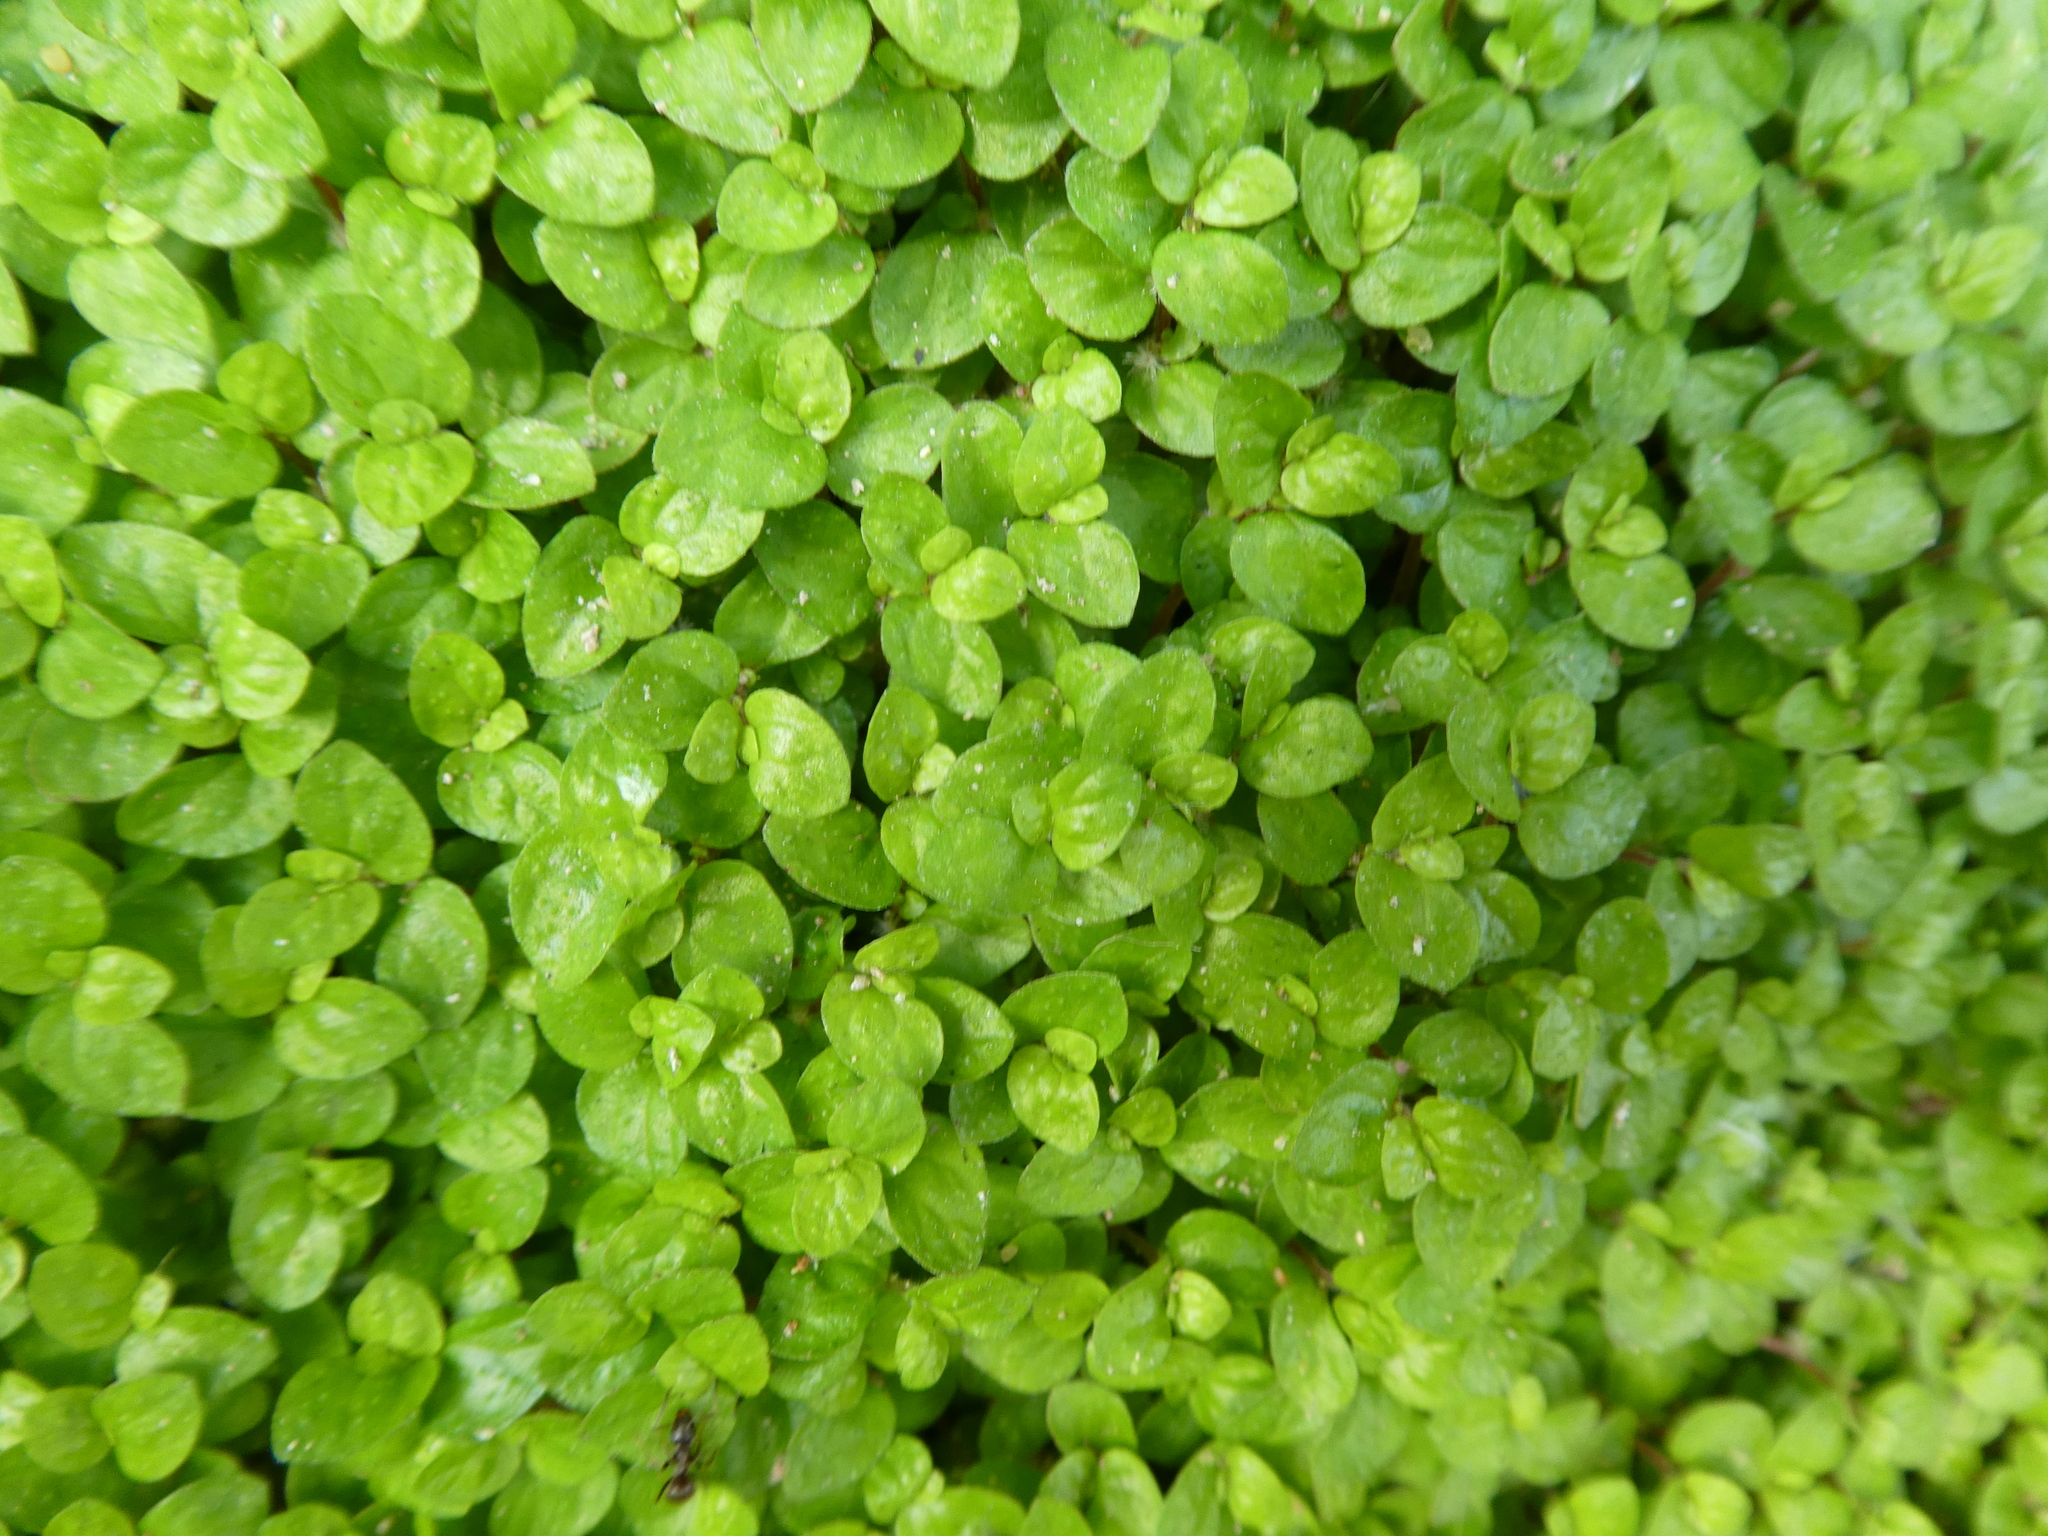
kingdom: Plantae
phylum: Tracheophyta
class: Magnoliopsida
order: Rosales
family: Urticaceae
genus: Soleirolia
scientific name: Soleirolia soleirolii
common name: Mind-your-own-business
